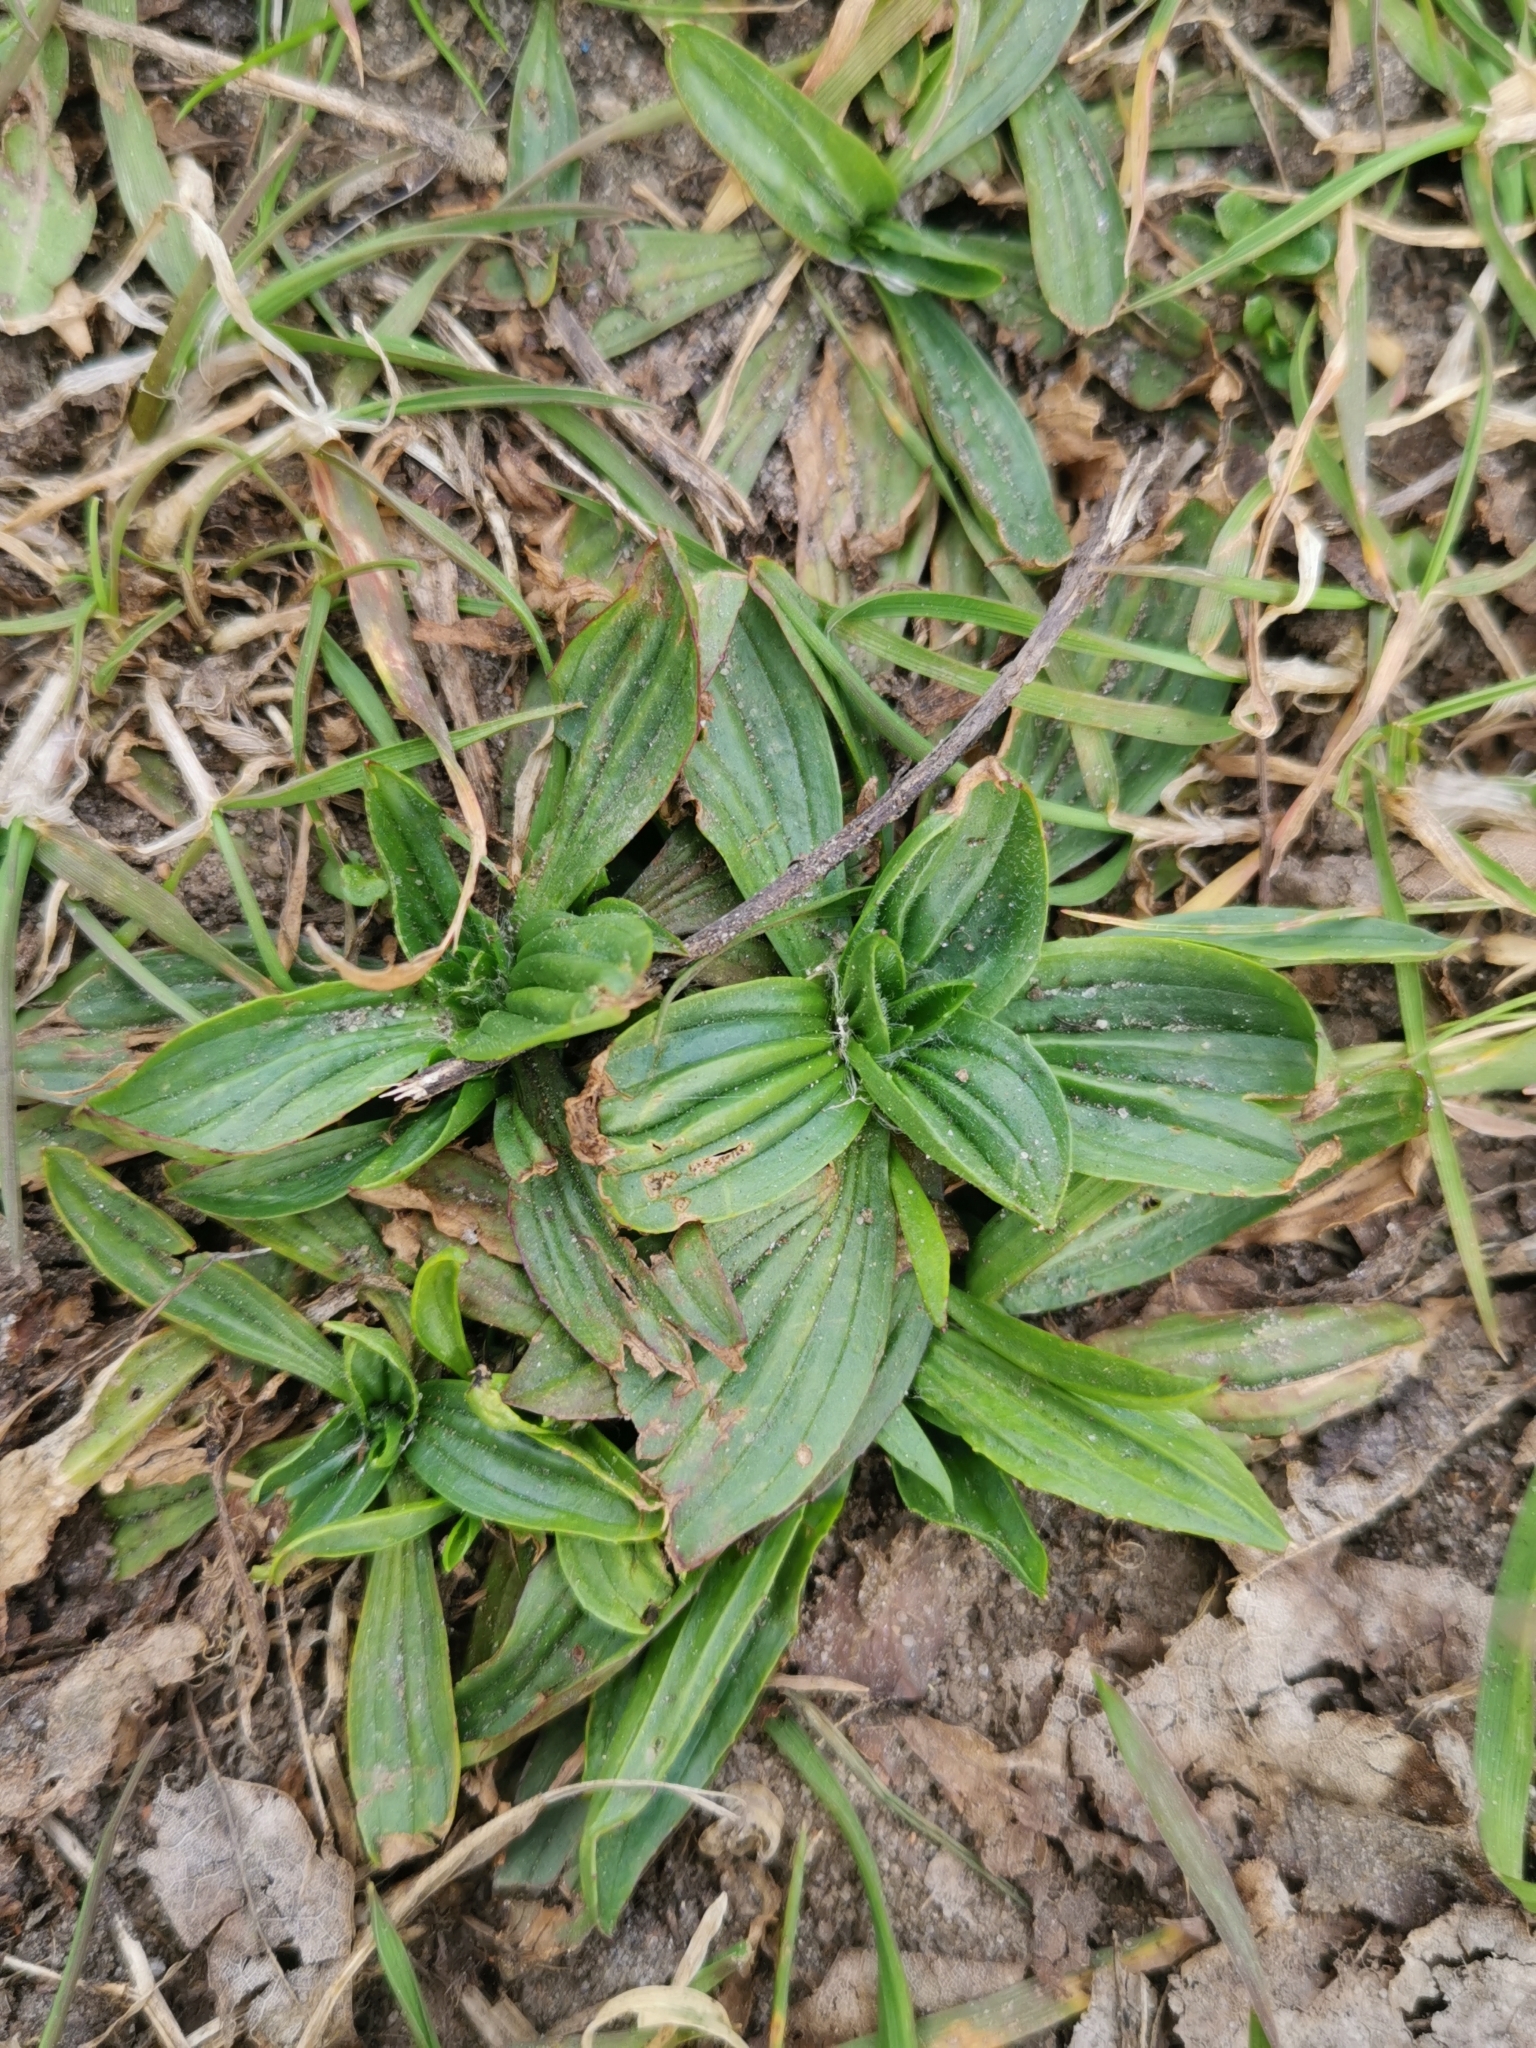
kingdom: Plantae
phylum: Tracheophyta
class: Magnoliopsida
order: Lamiales
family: Plantaginaceae
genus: Plantago
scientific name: Plantago lanceolata
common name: Ribwort plantain
